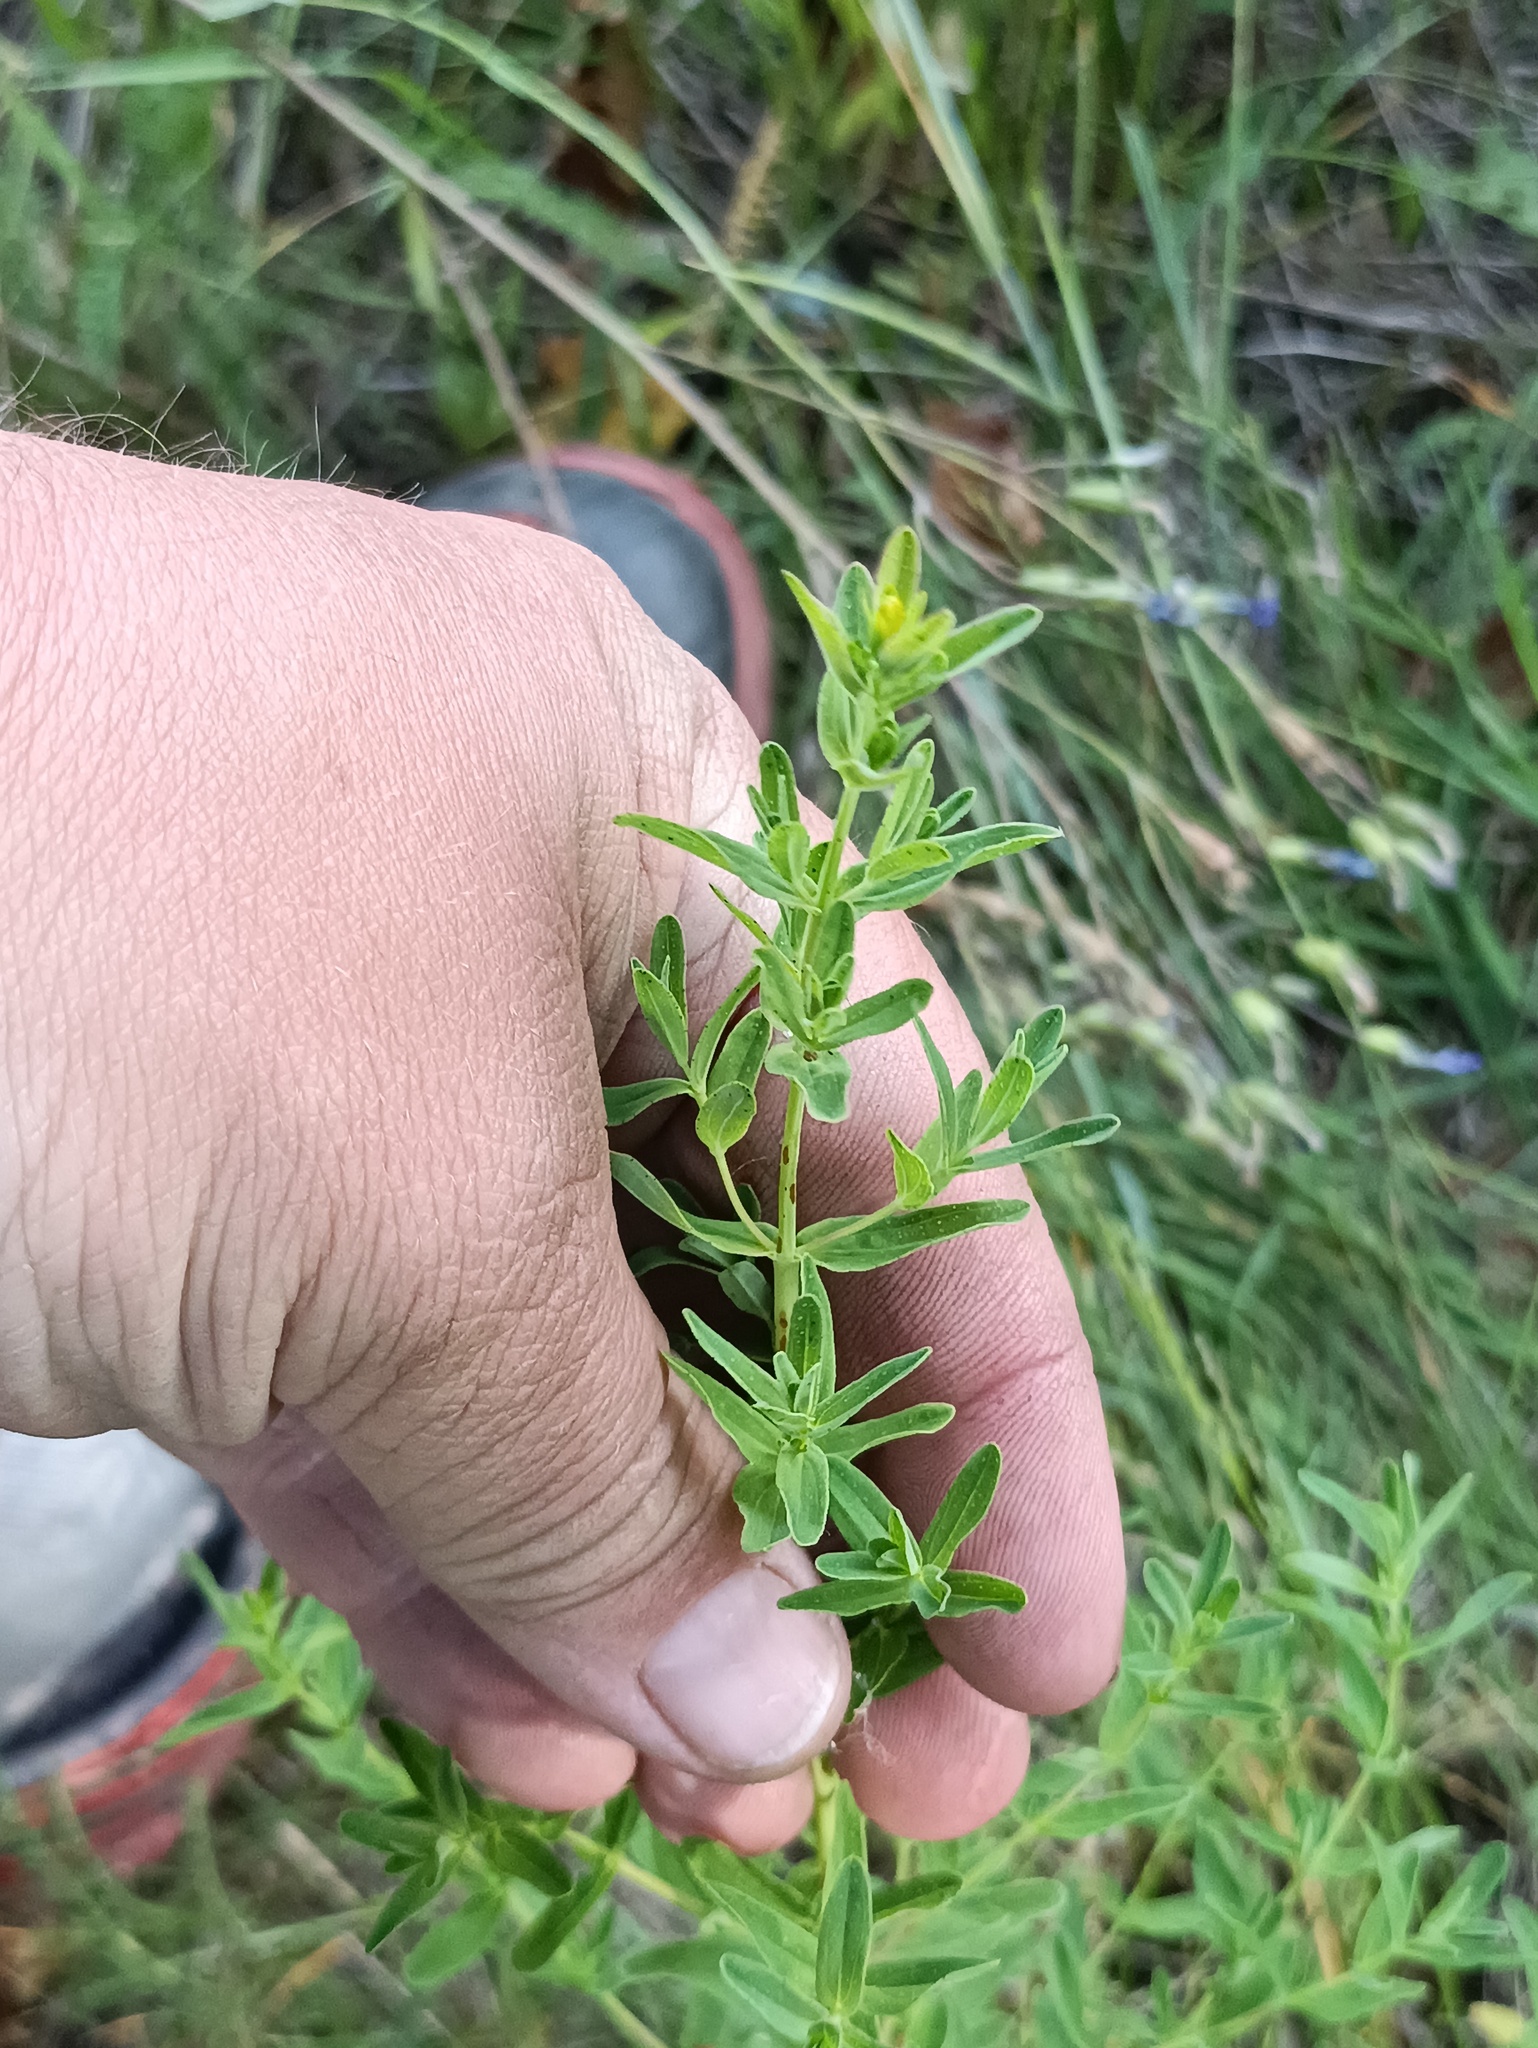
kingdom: Plantae
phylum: Tracheophyta
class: Magnoliopsida
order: Malpighiales
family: Hypericaceae
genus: Hypericum
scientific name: Hypericum perforatum
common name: Common st. johnswort
